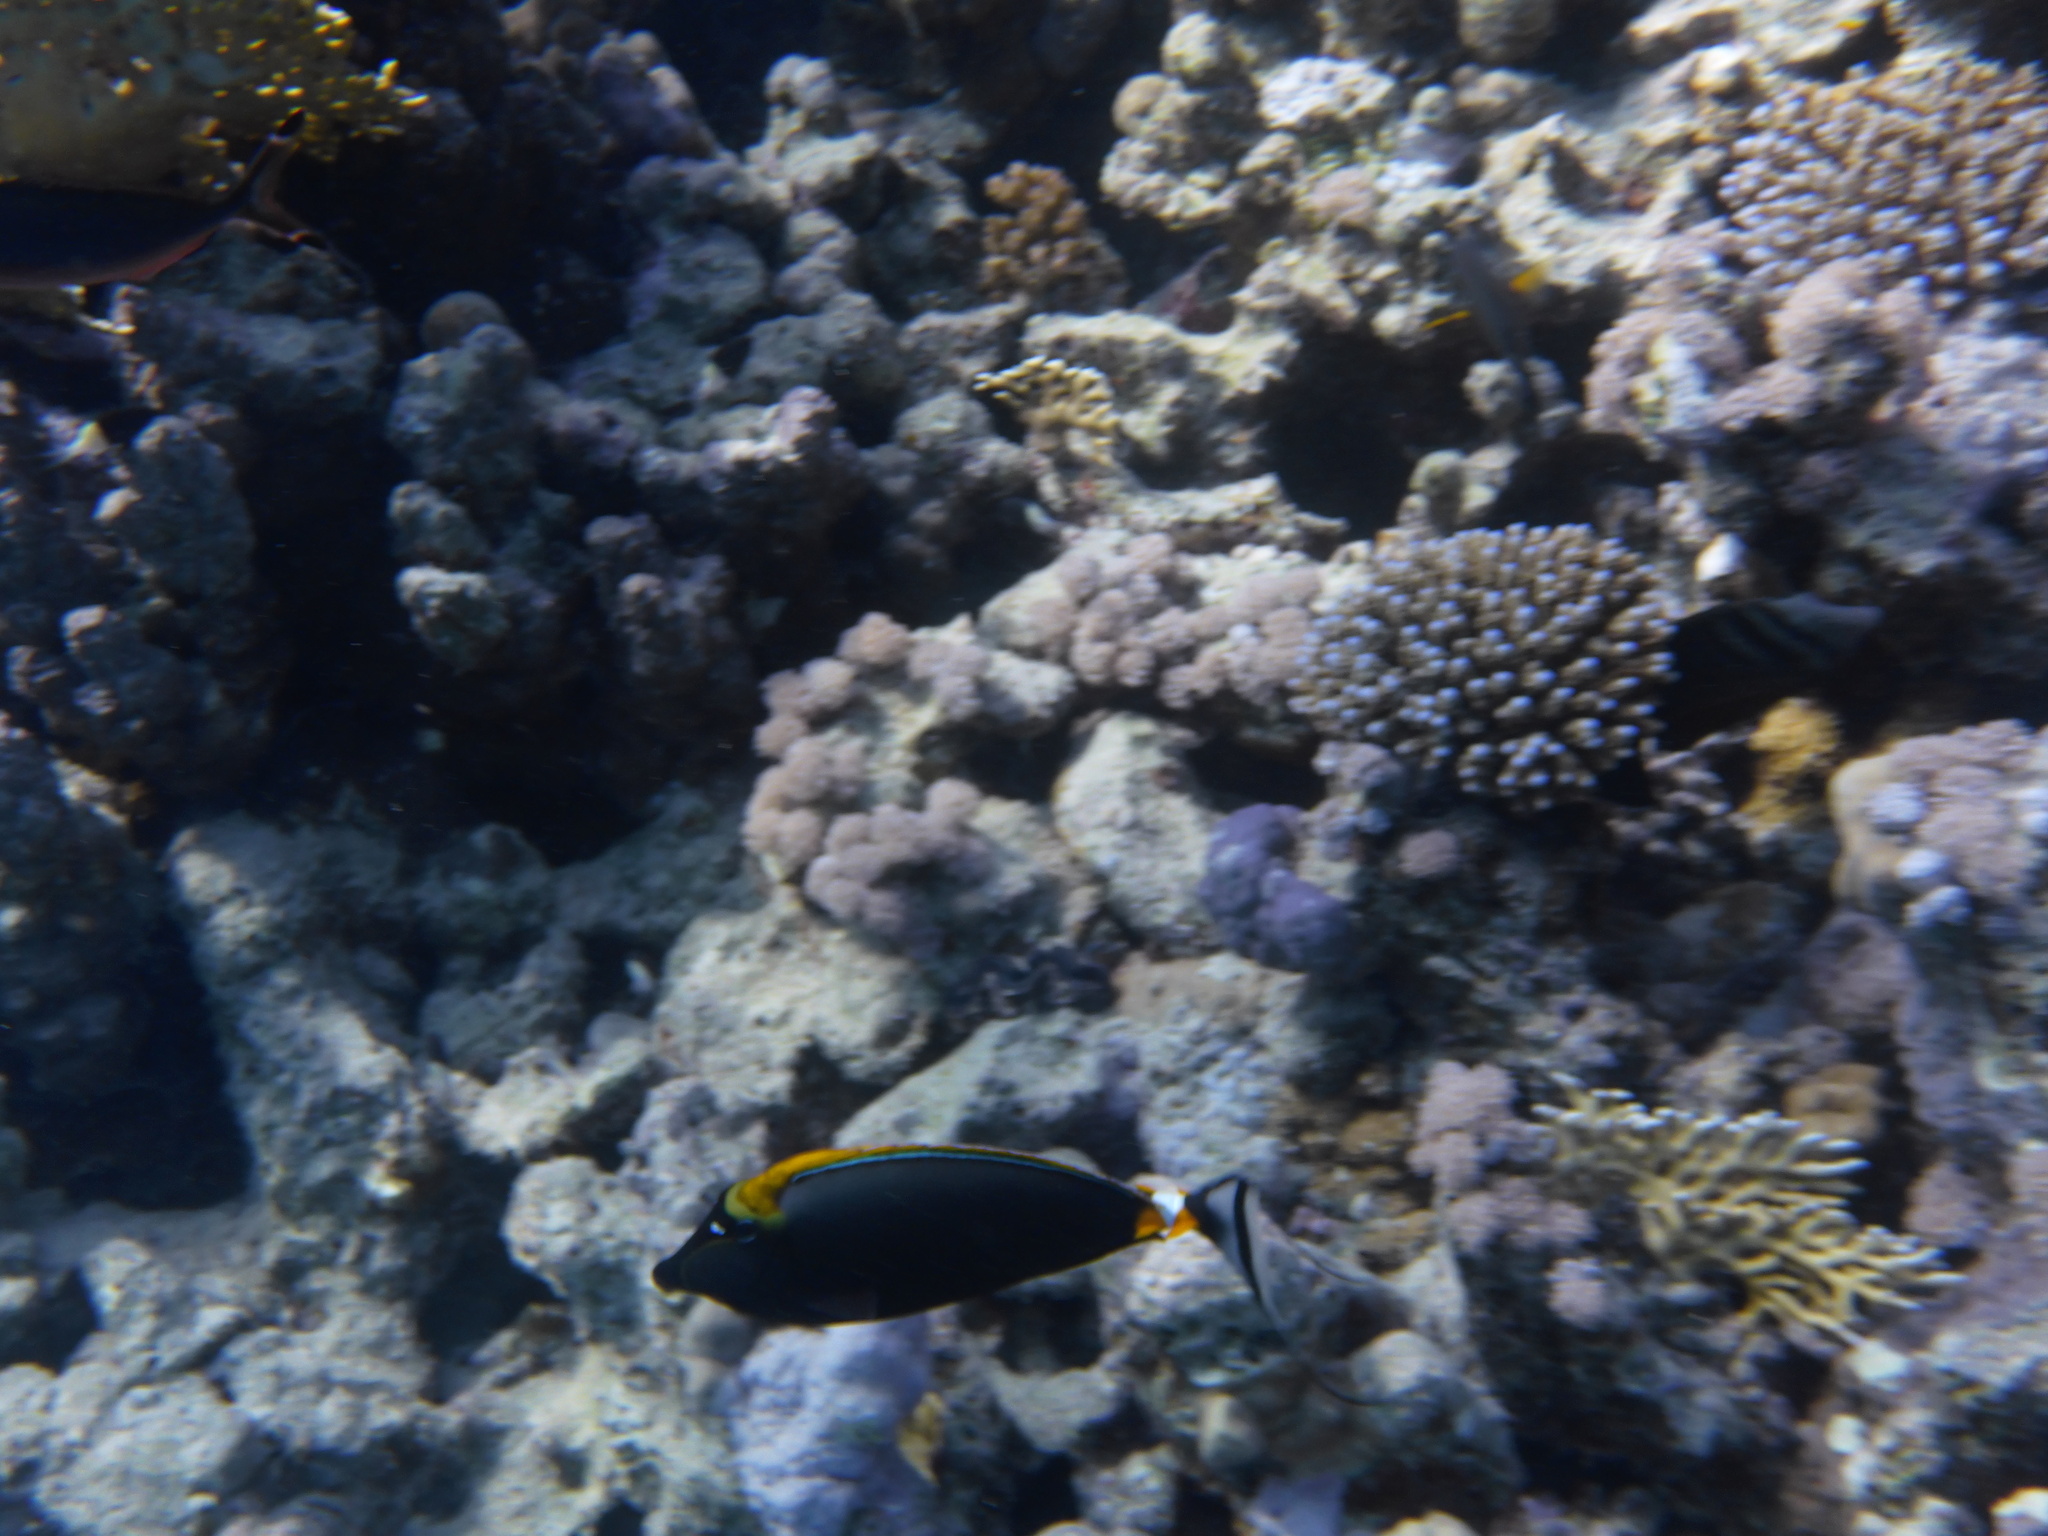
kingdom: Animalia
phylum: Chordata
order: Perciformes
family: Acanthuridae
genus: Naso
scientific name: Naso elegans
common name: Orangespine unicornfish
